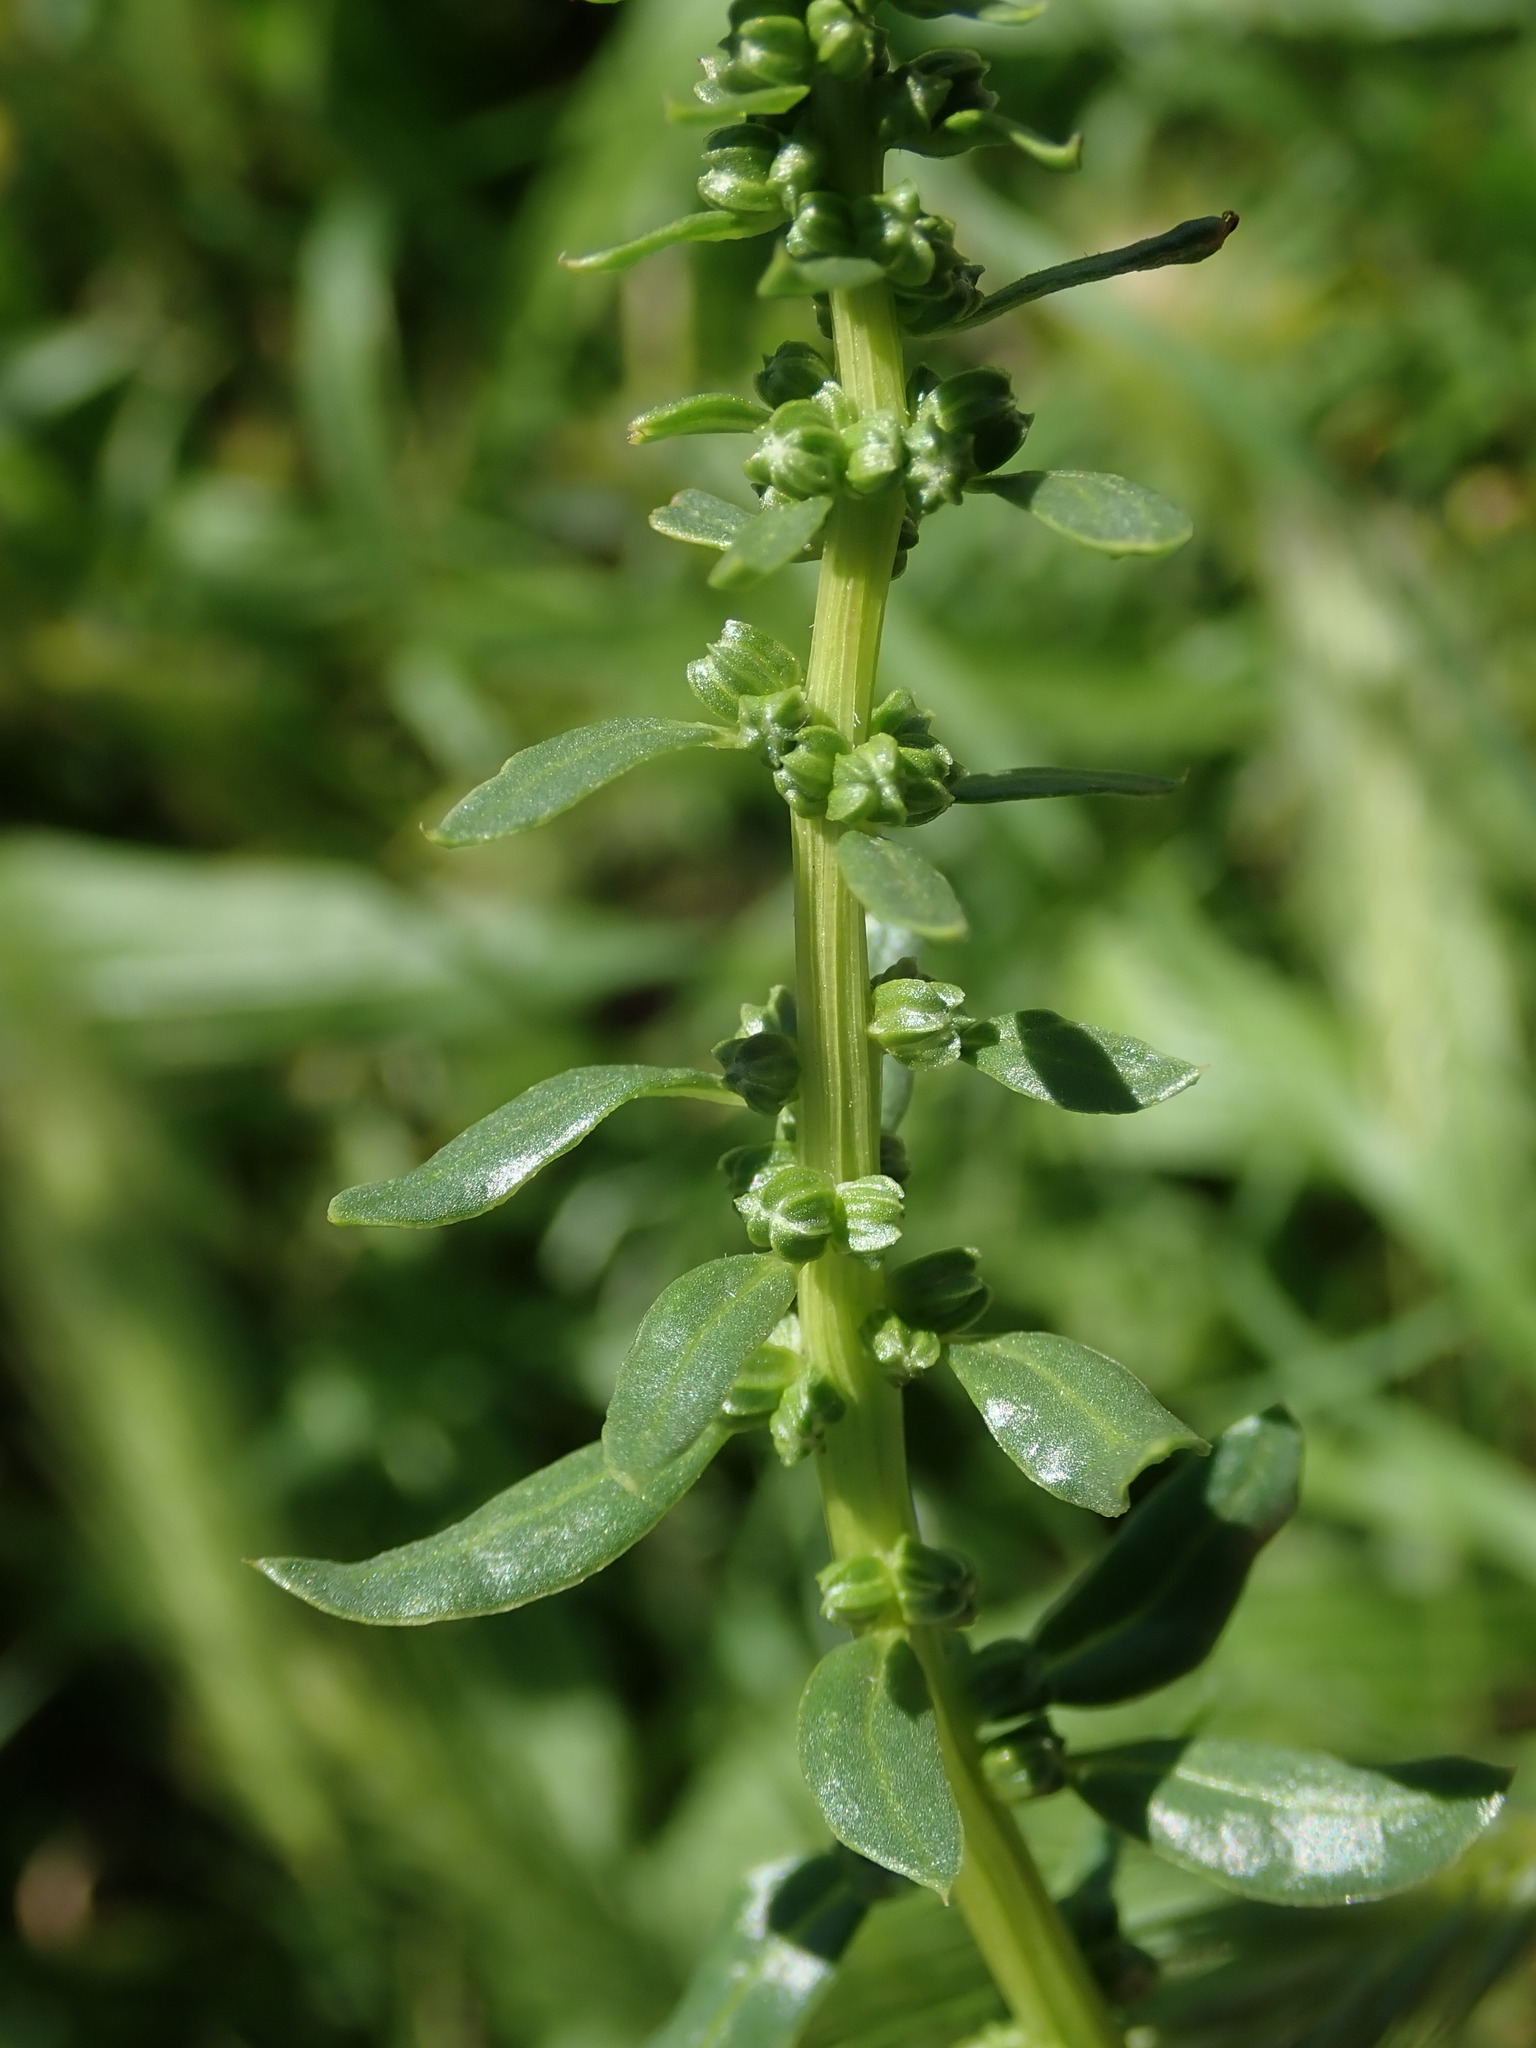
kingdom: Plantae
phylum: Tracheophyta
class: Magnoliopsida
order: Caryophyllales
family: Amaranthaceae
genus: Beta
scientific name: Beta vulgaris
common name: Beet
